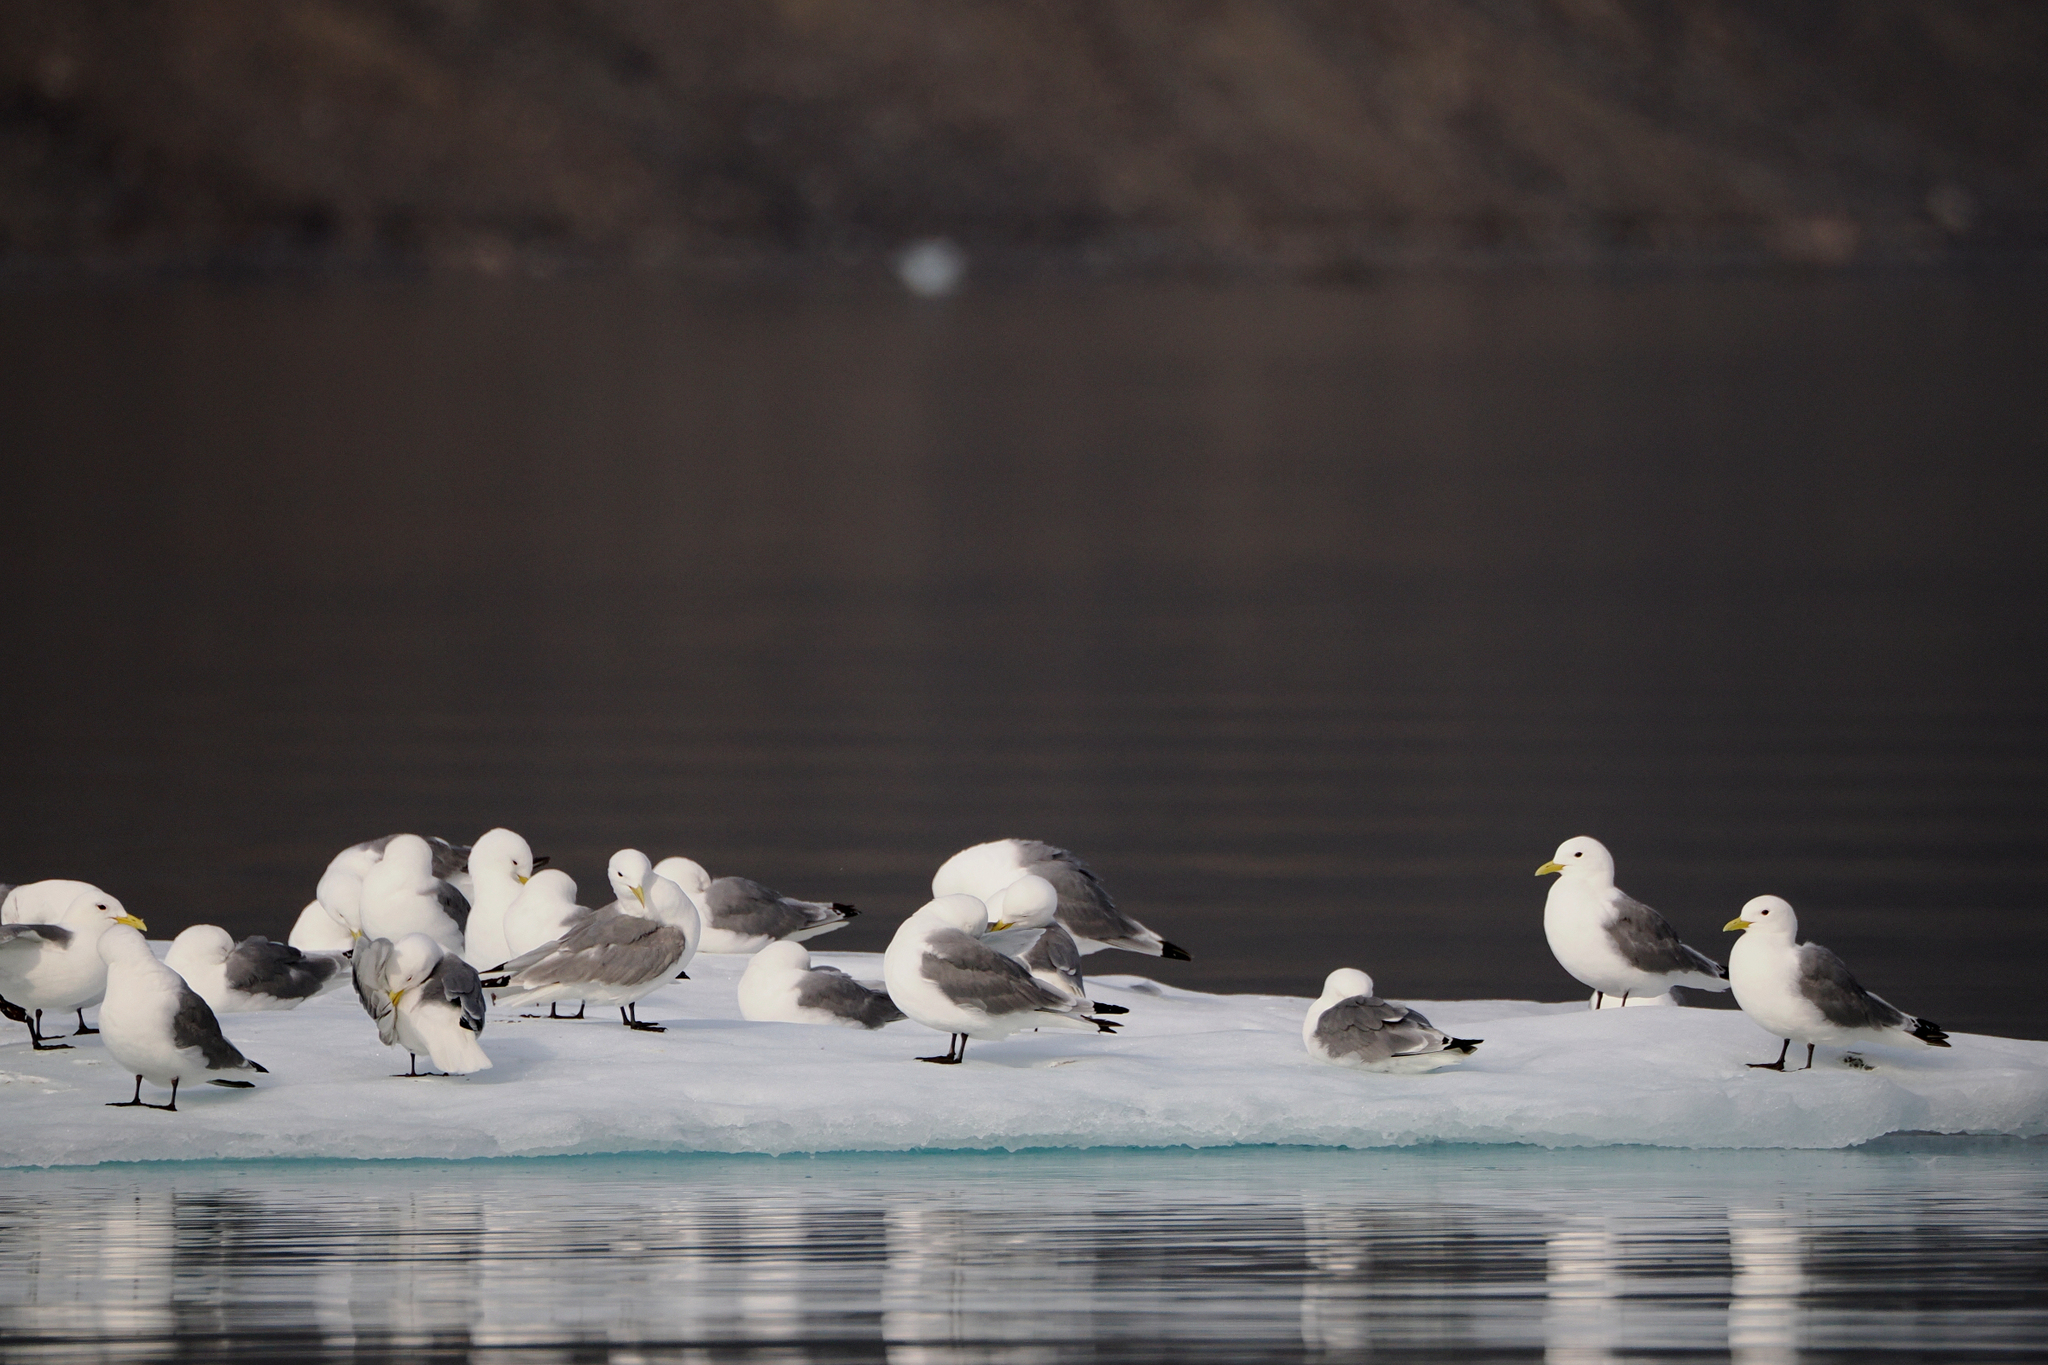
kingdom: Animalia
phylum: Chordata
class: Aves
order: Charadriiformes
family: Laridae
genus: Rissa
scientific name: Rissa tridactyla
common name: Black-legged kittiwake
